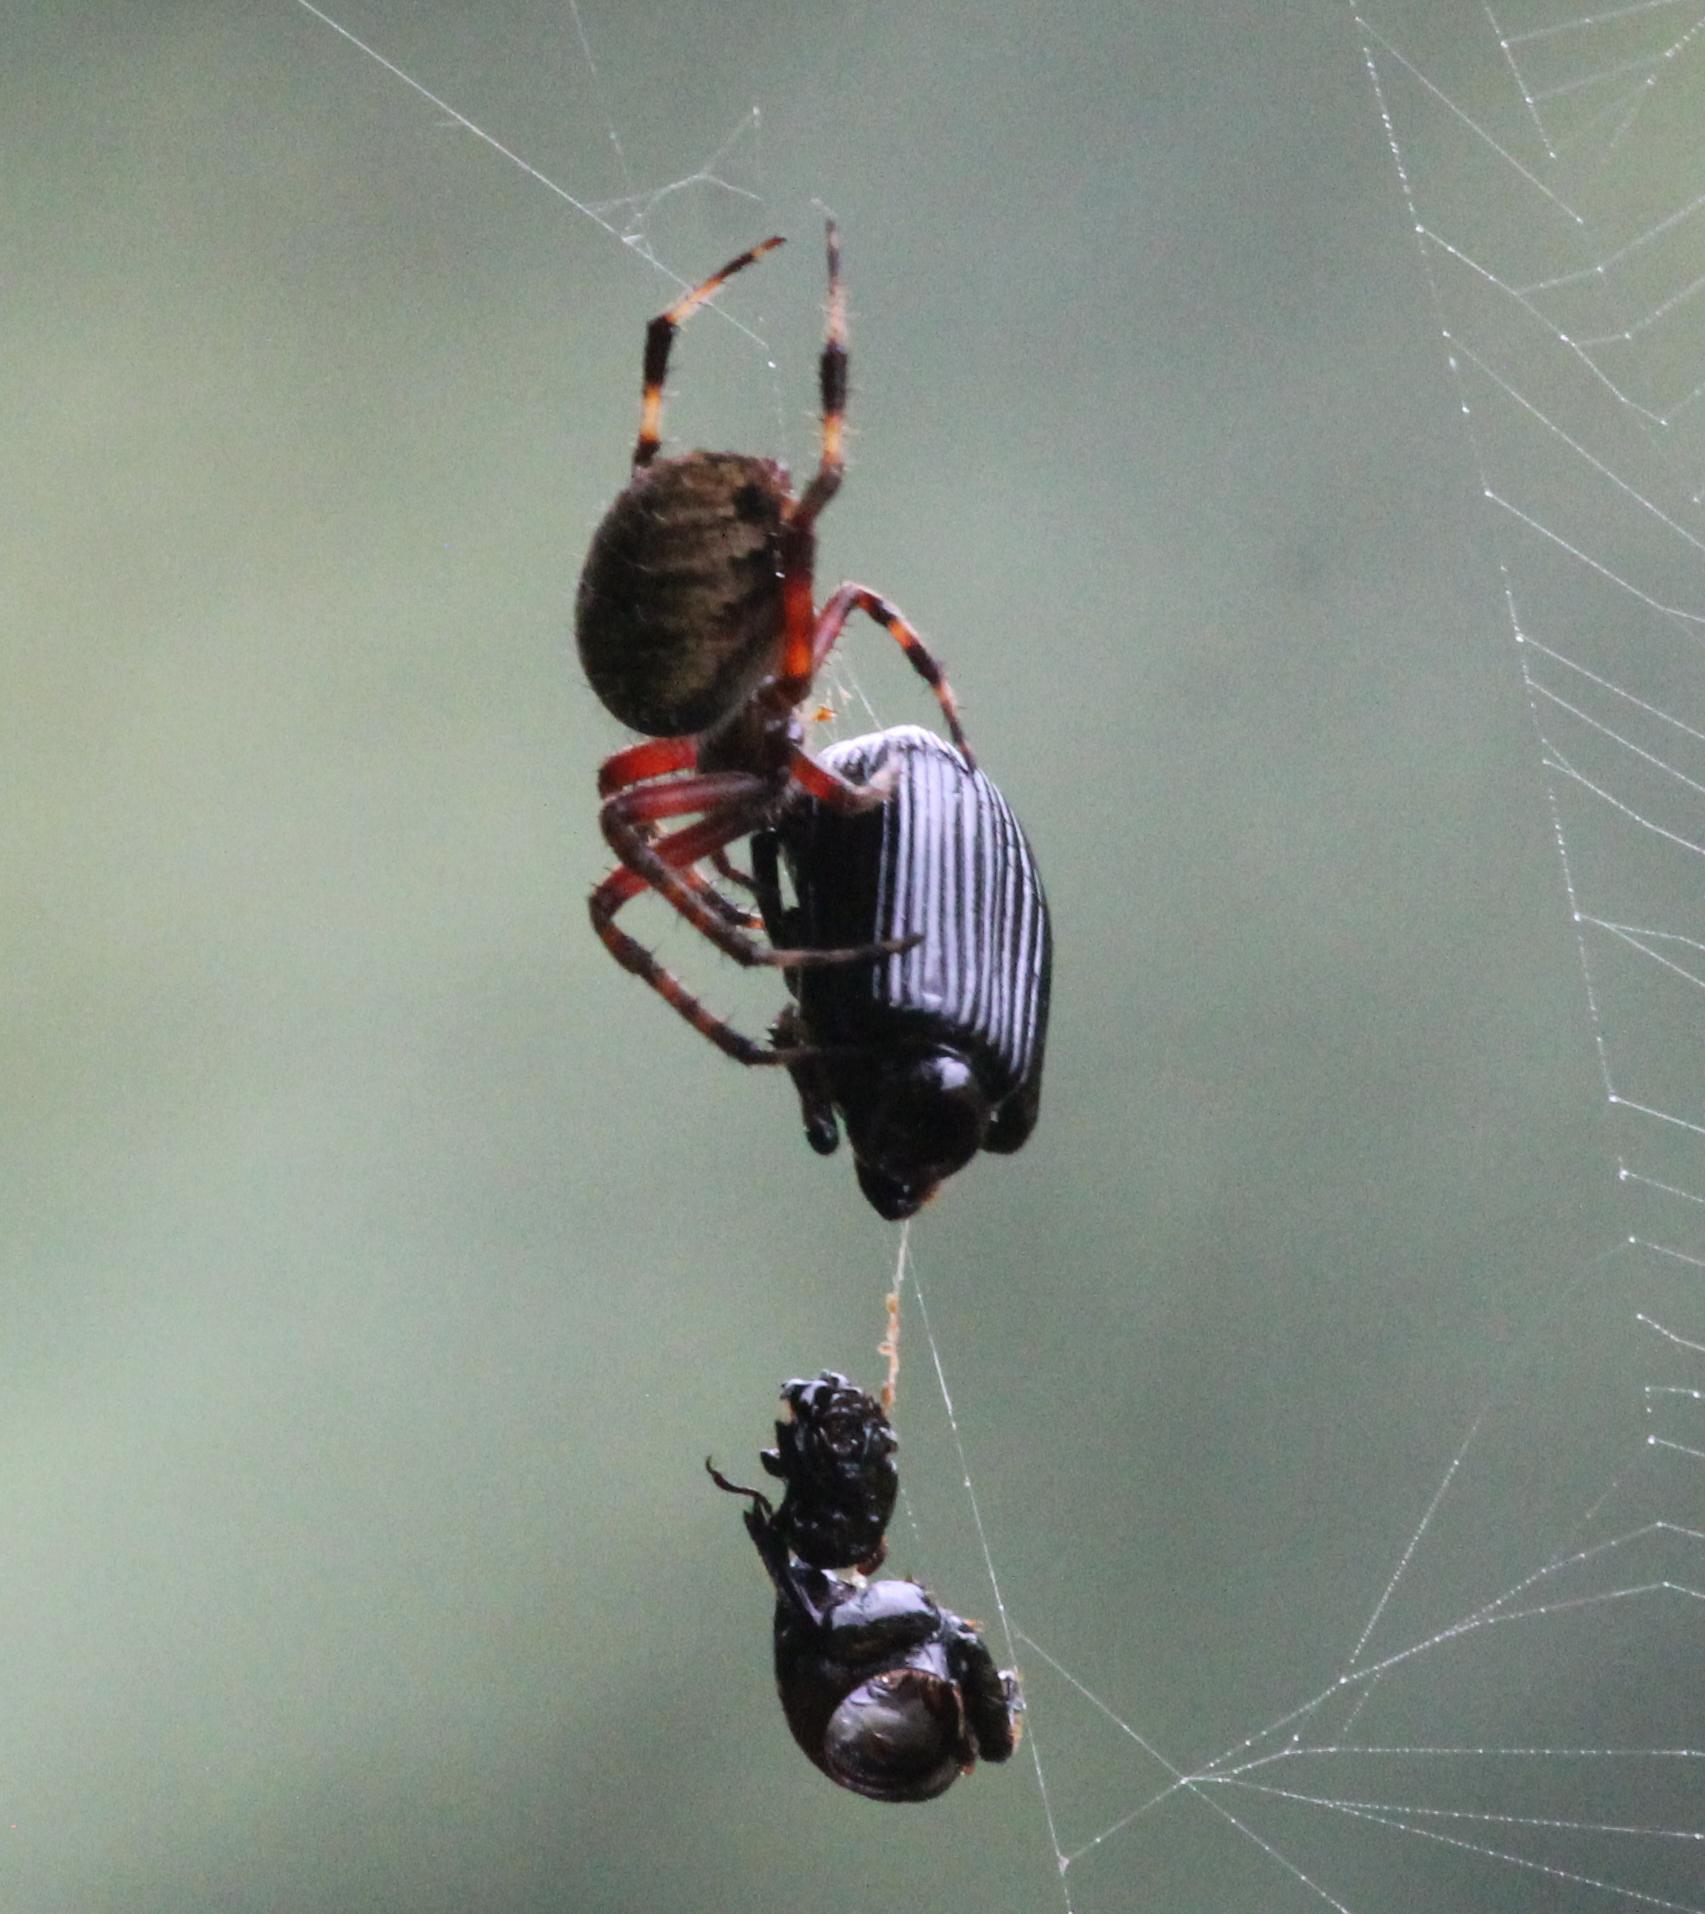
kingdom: Animalia
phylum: Arthropoda
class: Arachnida
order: Araneae
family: Araneidae
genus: Neoscona
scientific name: Neoscona crucifera
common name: Spotted orbweaver
